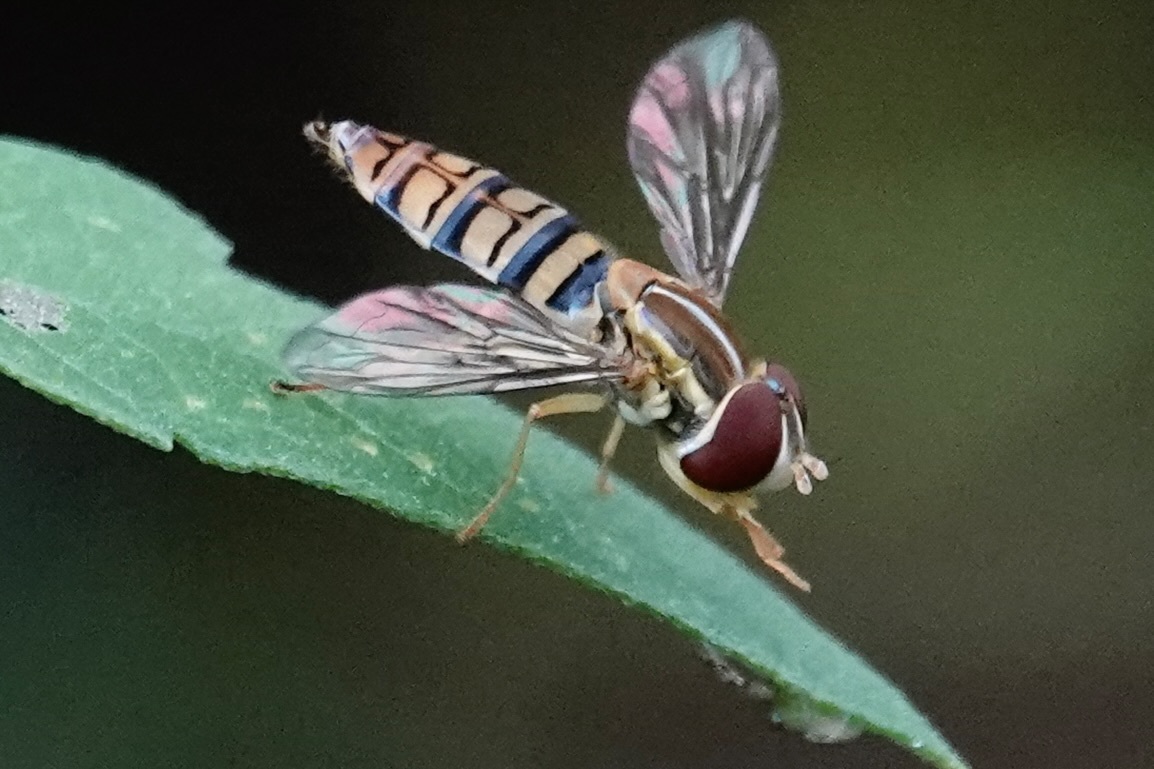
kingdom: Animalia
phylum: Arthropoda
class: Insecta
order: Diptera
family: Syrphidae
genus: Toxomerus
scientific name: Toxomerus politus
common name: Maize calligrapher
